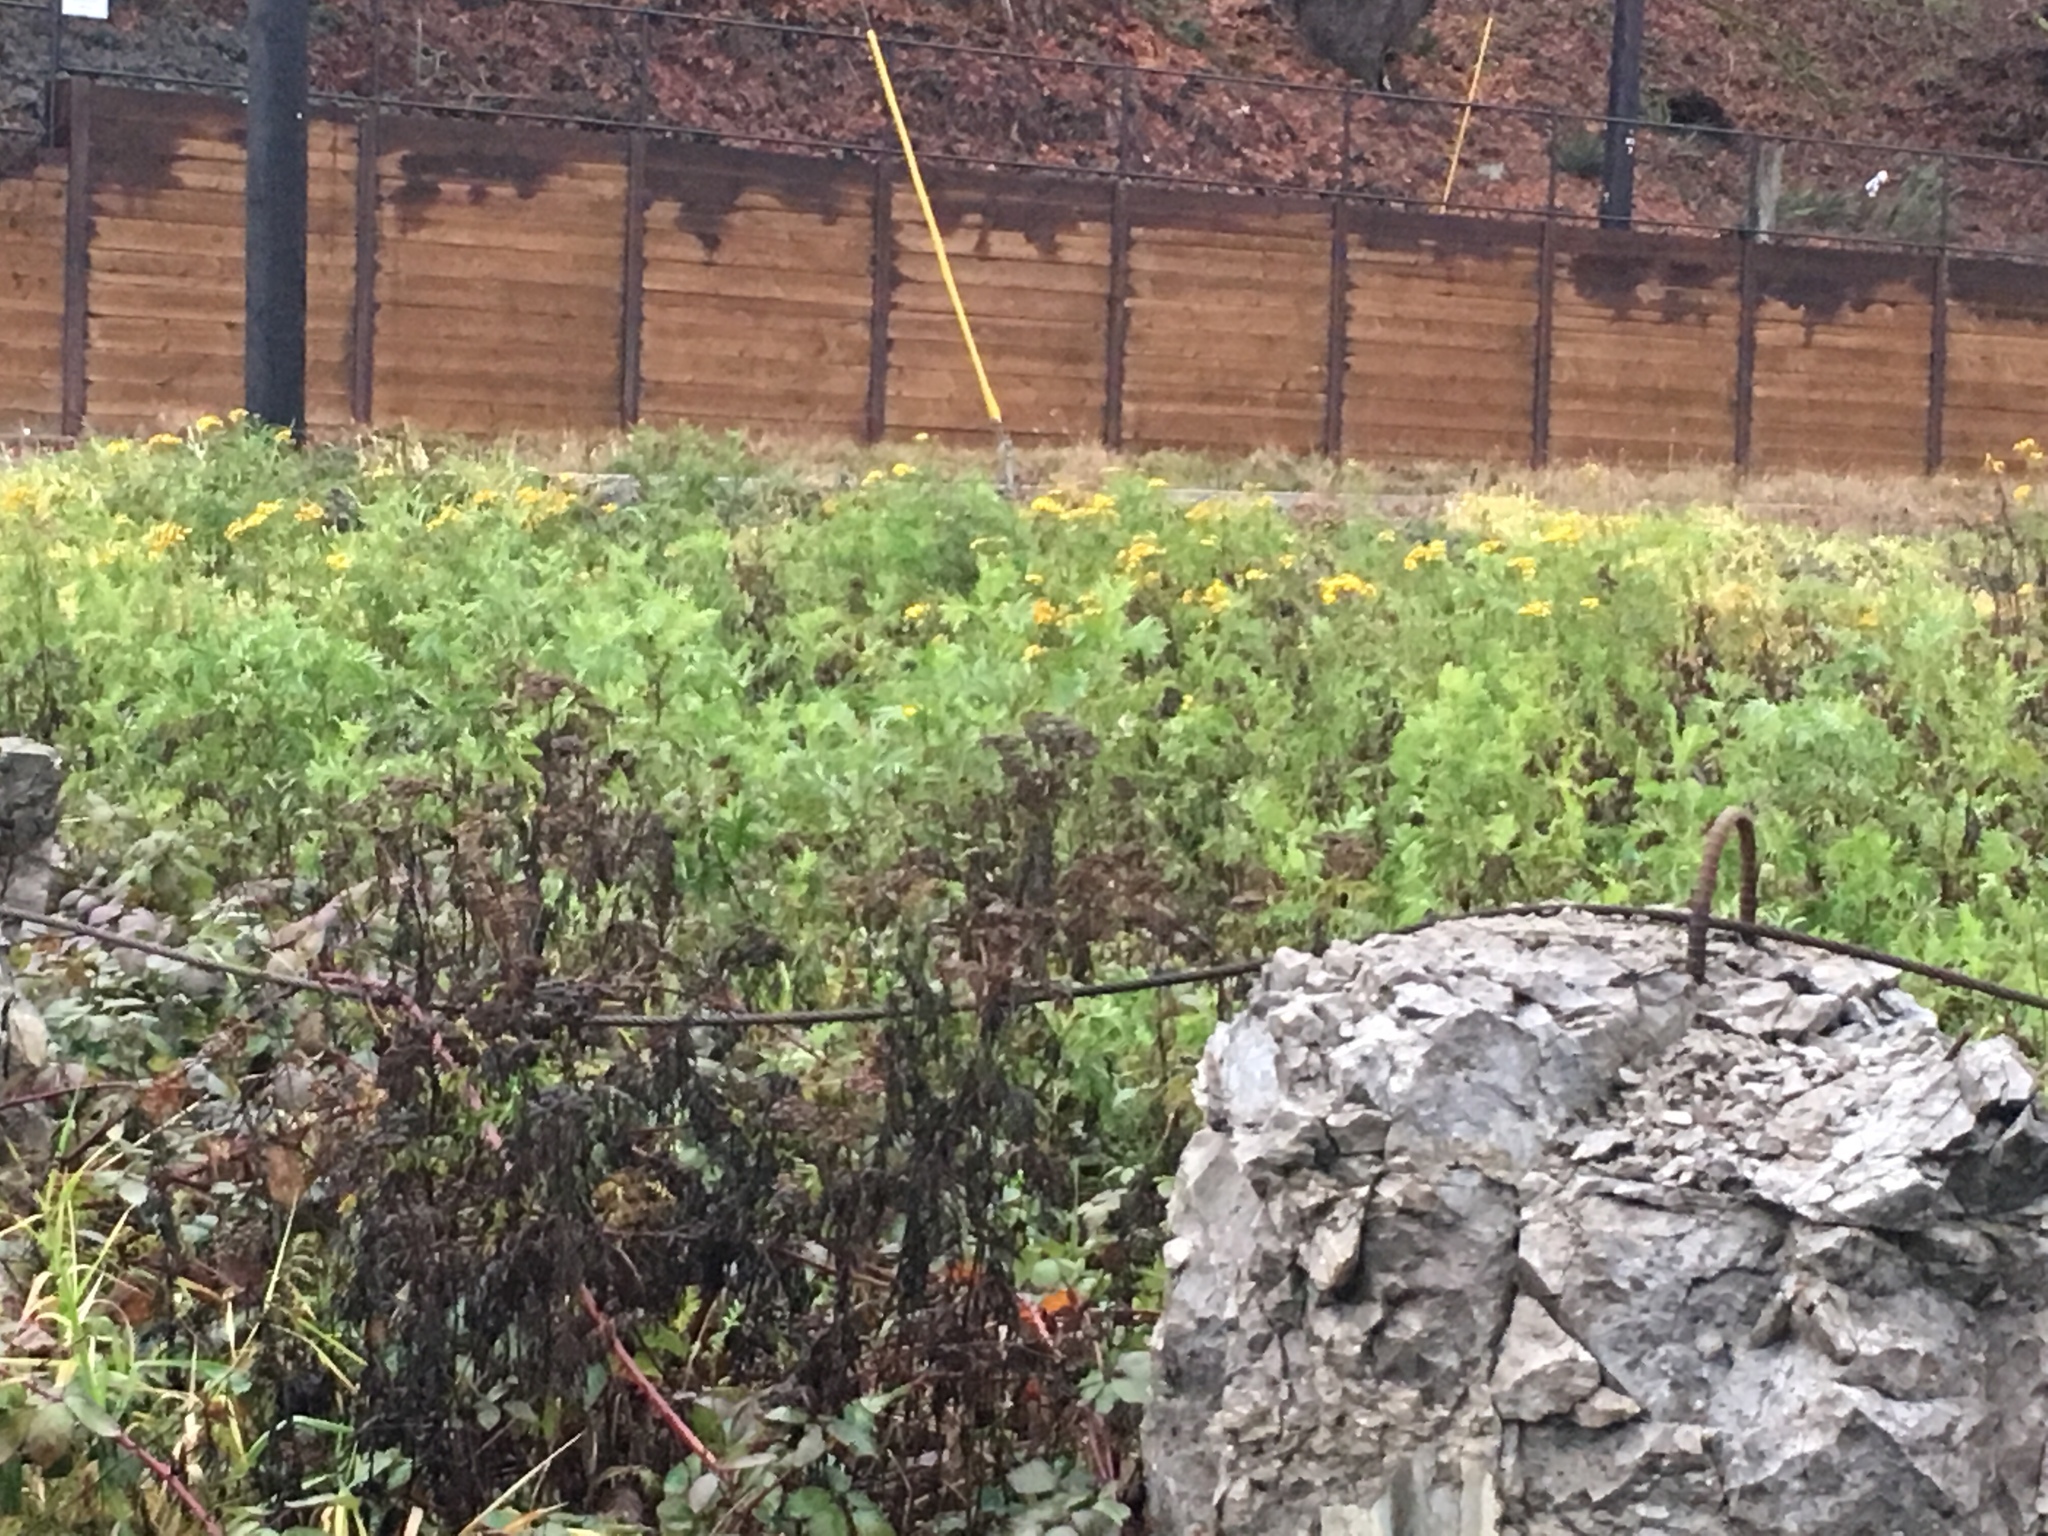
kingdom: Plantae
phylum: Tracheophyta
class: Magnoliopsida
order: Asterales
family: Asteraceae
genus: Tanacetum
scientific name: Tanacetum vulgare
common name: Common tansy
